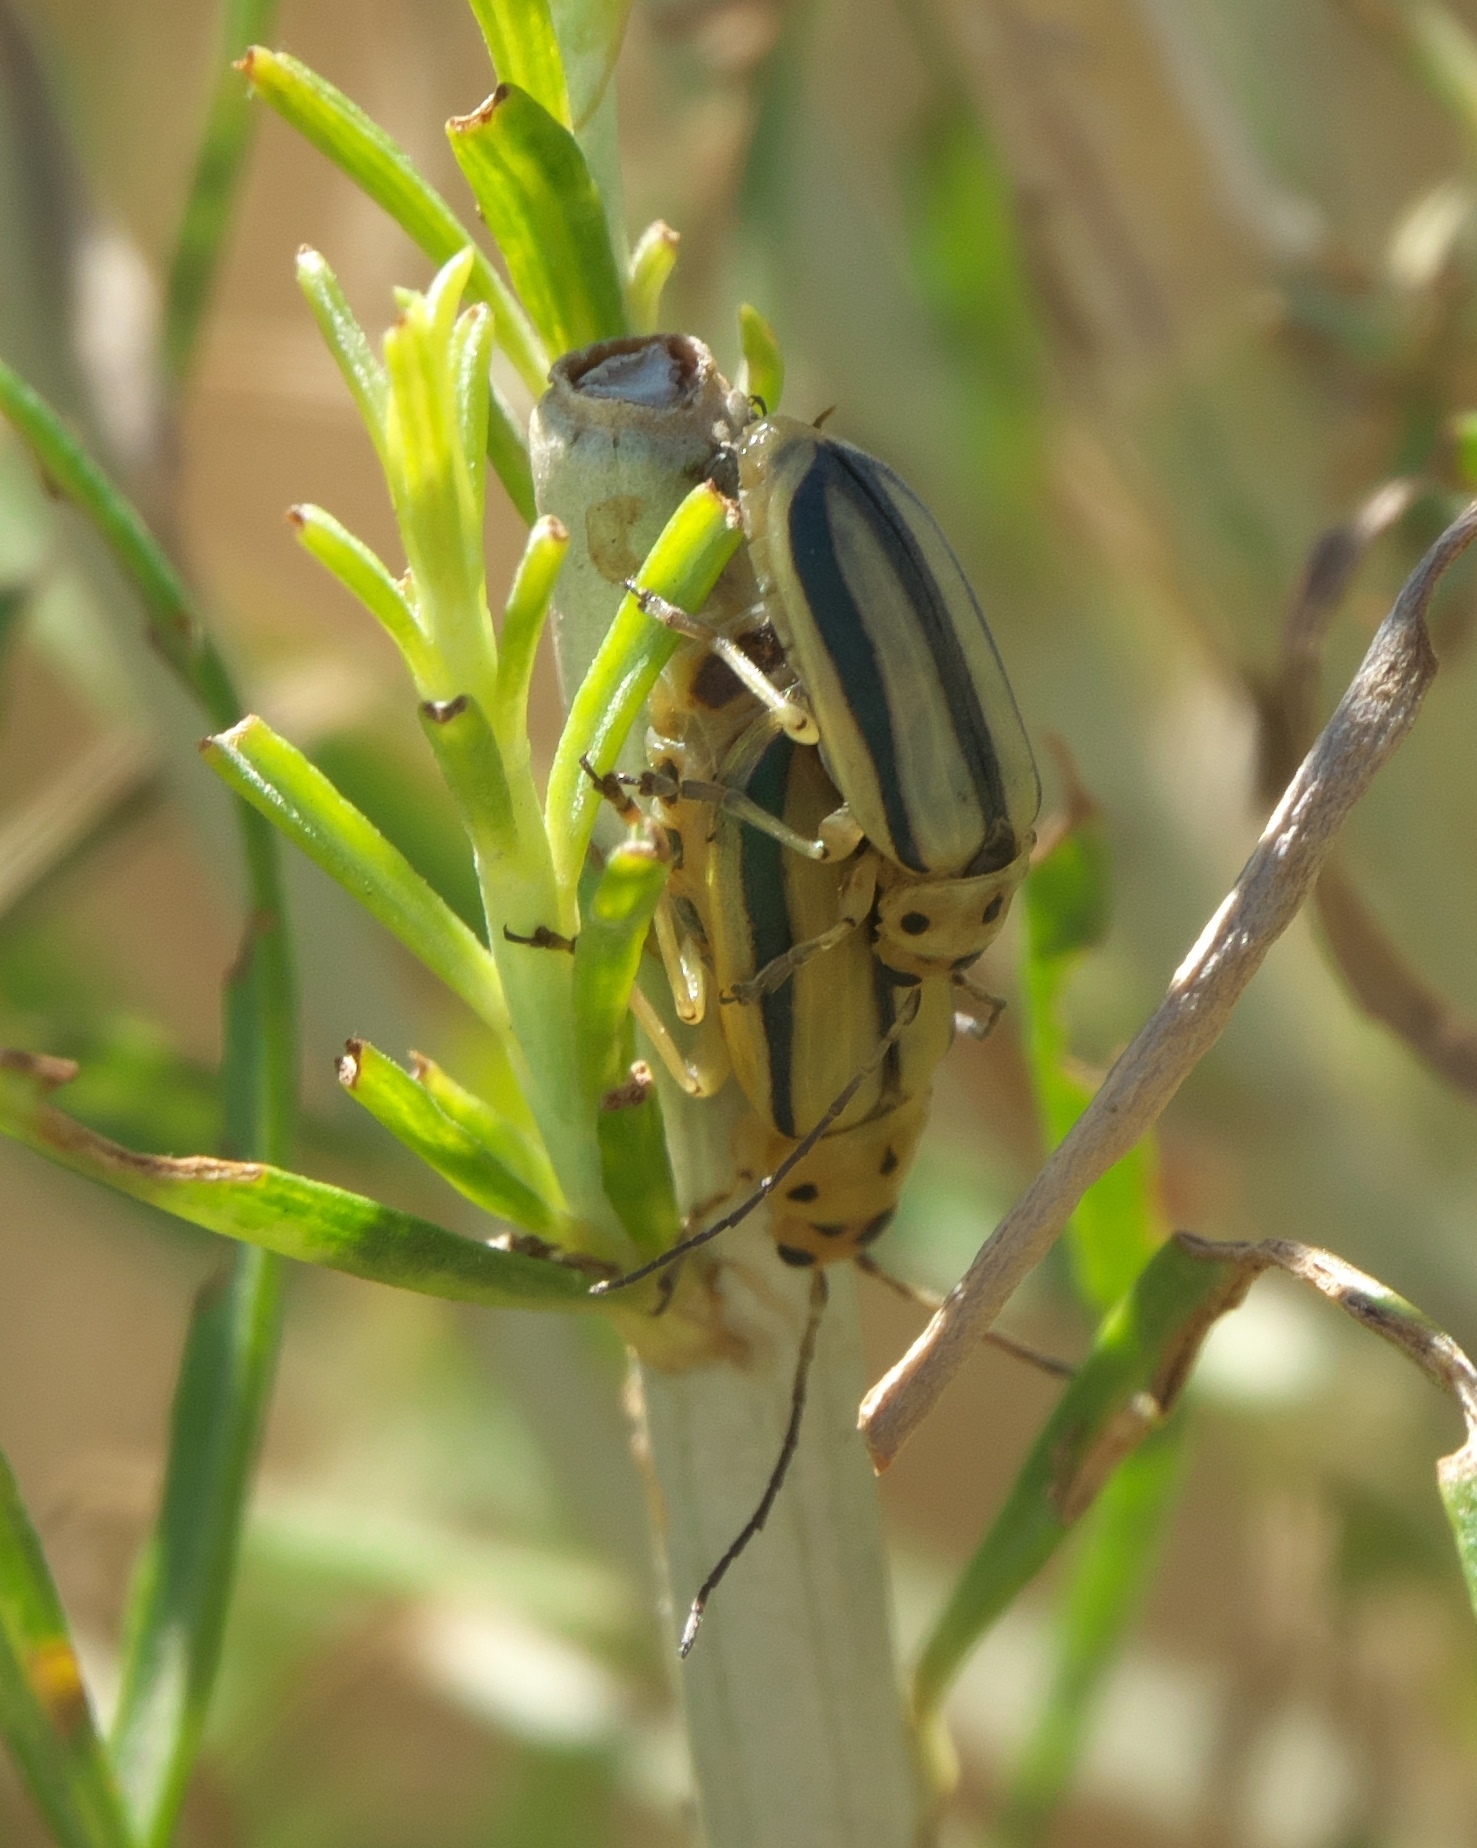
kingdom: Animalia
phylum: Arthropoda
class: Insecta
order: Coleoptera
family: Chrysomelidae
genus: Trirhabda
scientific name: Trirhabda nitidicollis
